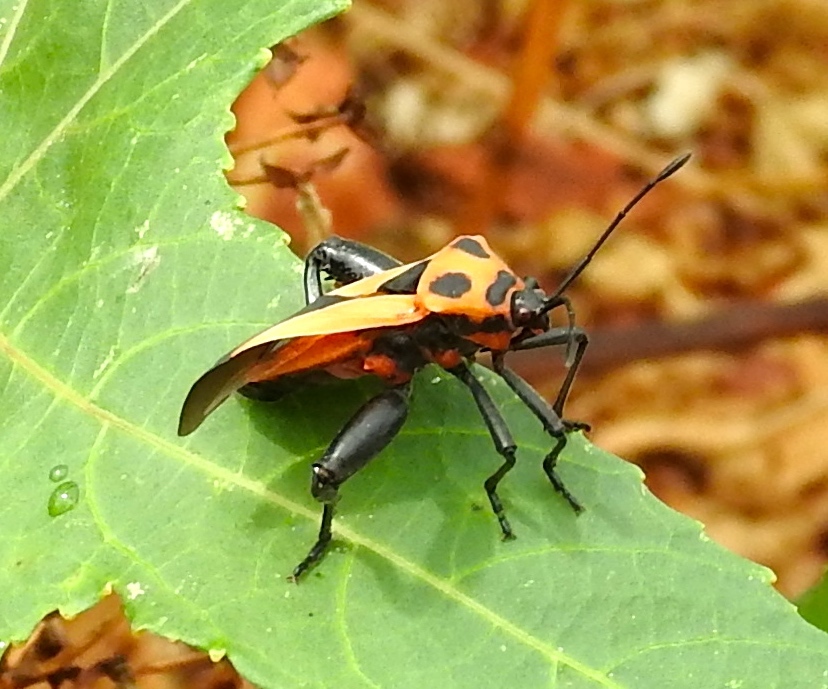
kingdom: Animalia
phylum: Arthropoda
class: Insecta
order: Hemiptera
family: Coreidae
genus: Sagotylus
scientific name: Sagotylus confluens
